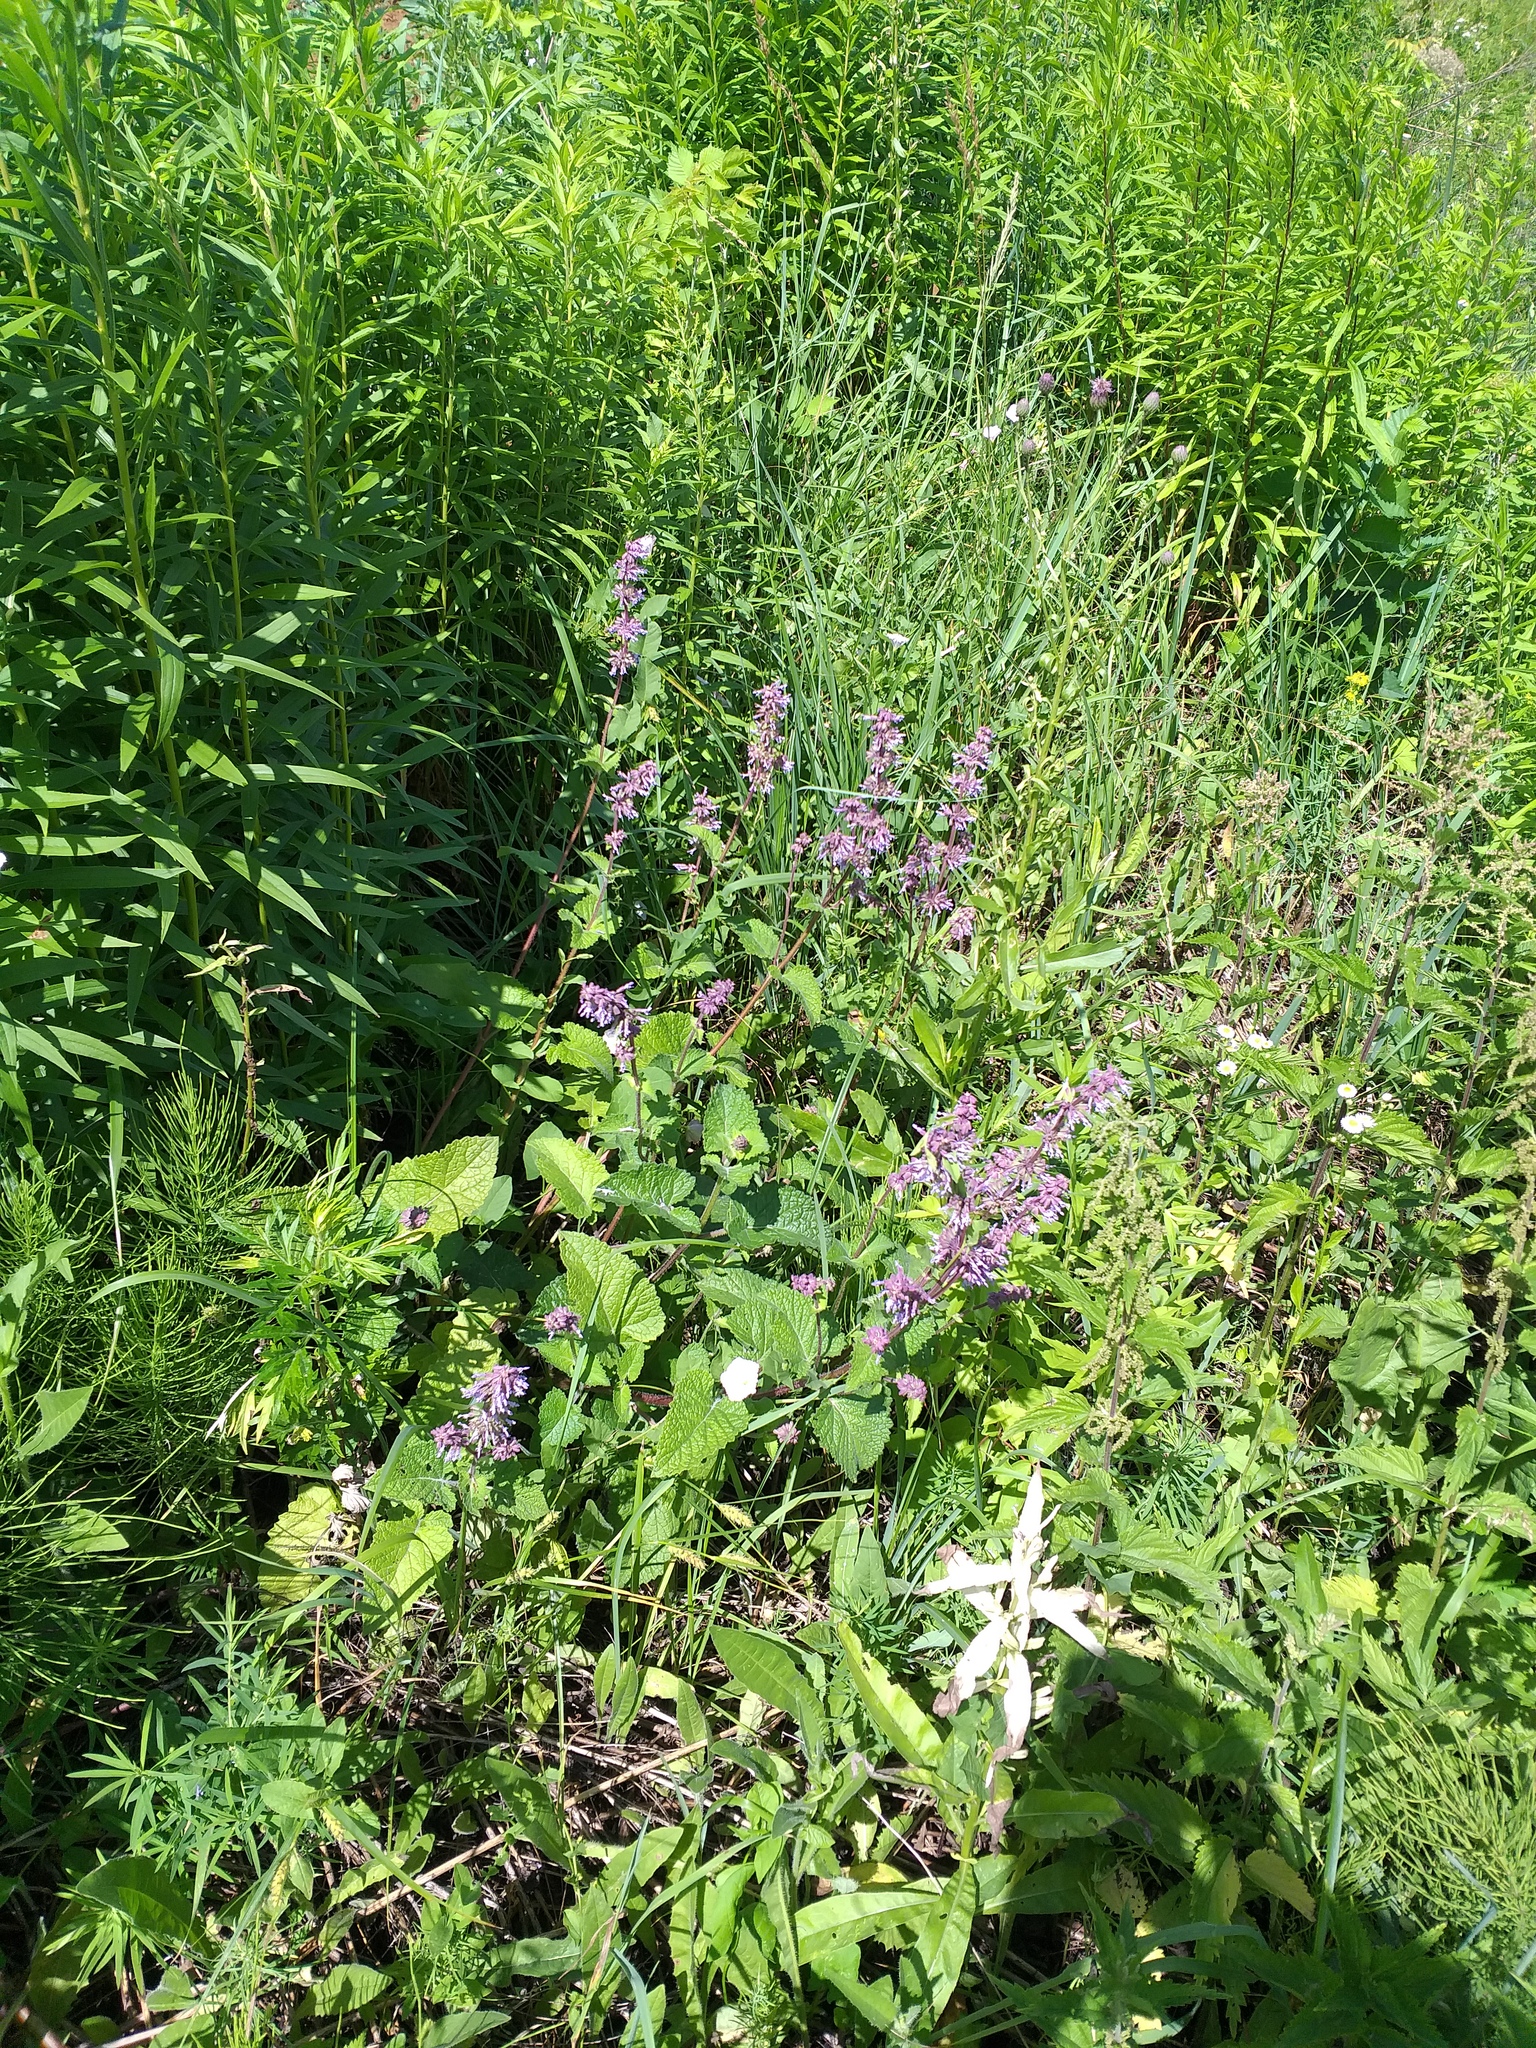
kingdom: Plantae
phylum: Tracheophyta
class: Magnoliopsida
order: Lamiales
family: Lamiaceae
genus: Salvia
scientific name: Salvia verticillata
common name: Whorled clary
